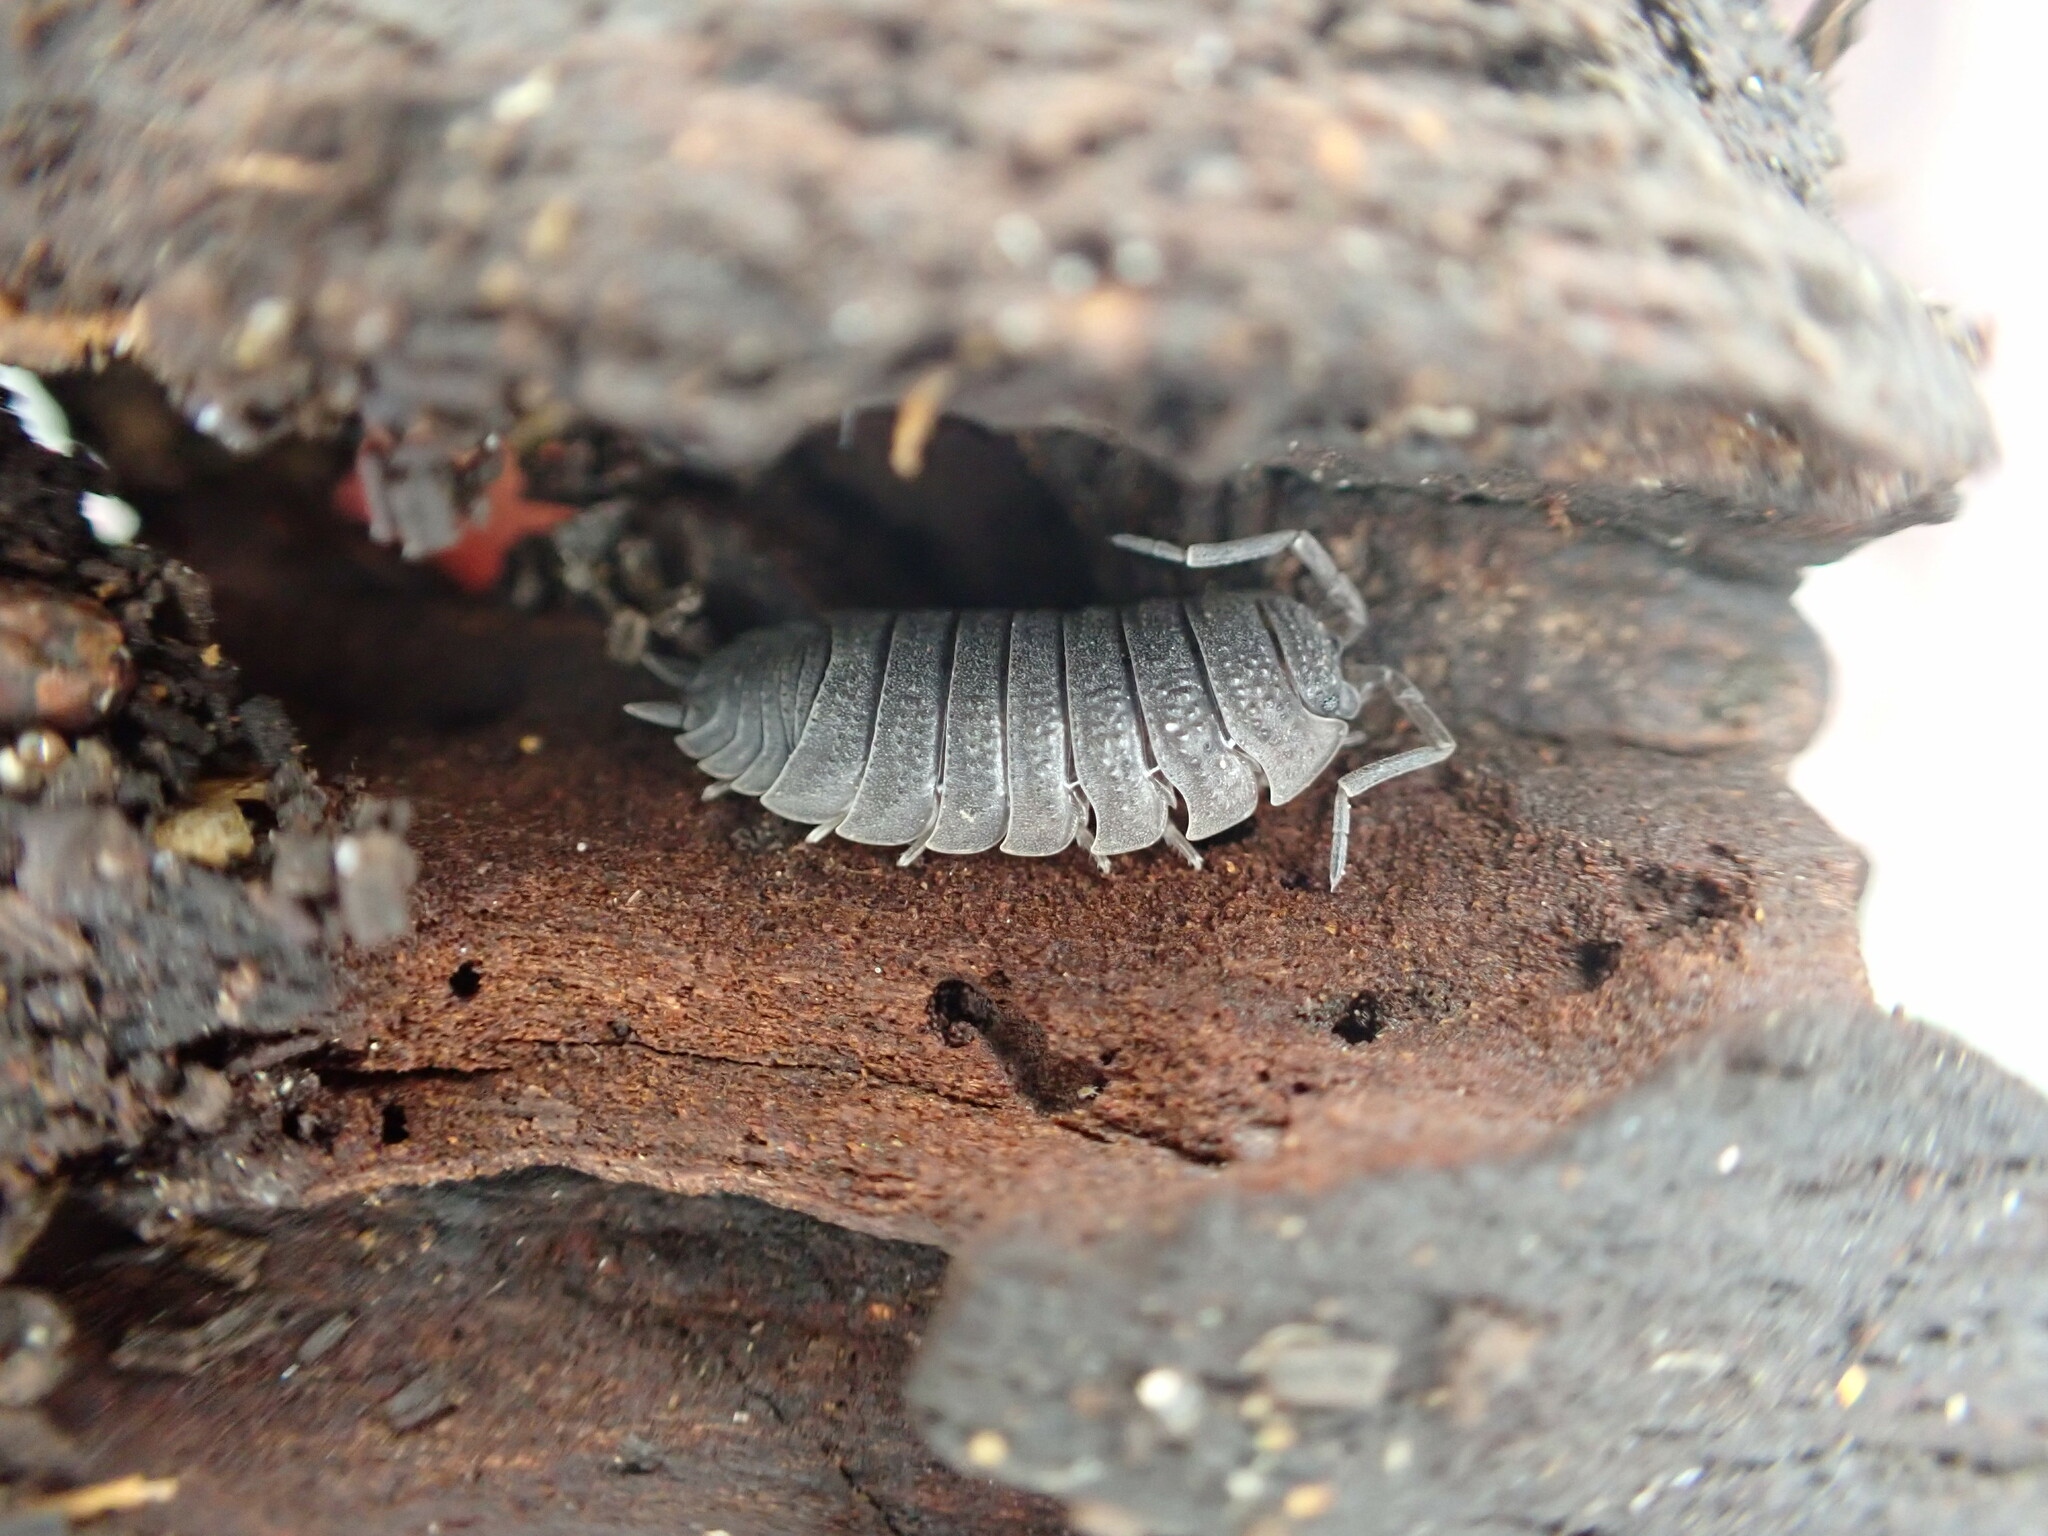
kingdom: Animalia
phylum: Arthropoda
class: Malacostraca
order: Isopoda
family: Porcellionidae
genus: Porcellio
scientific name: Porcellio scaber
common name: Common rough woodlouse
